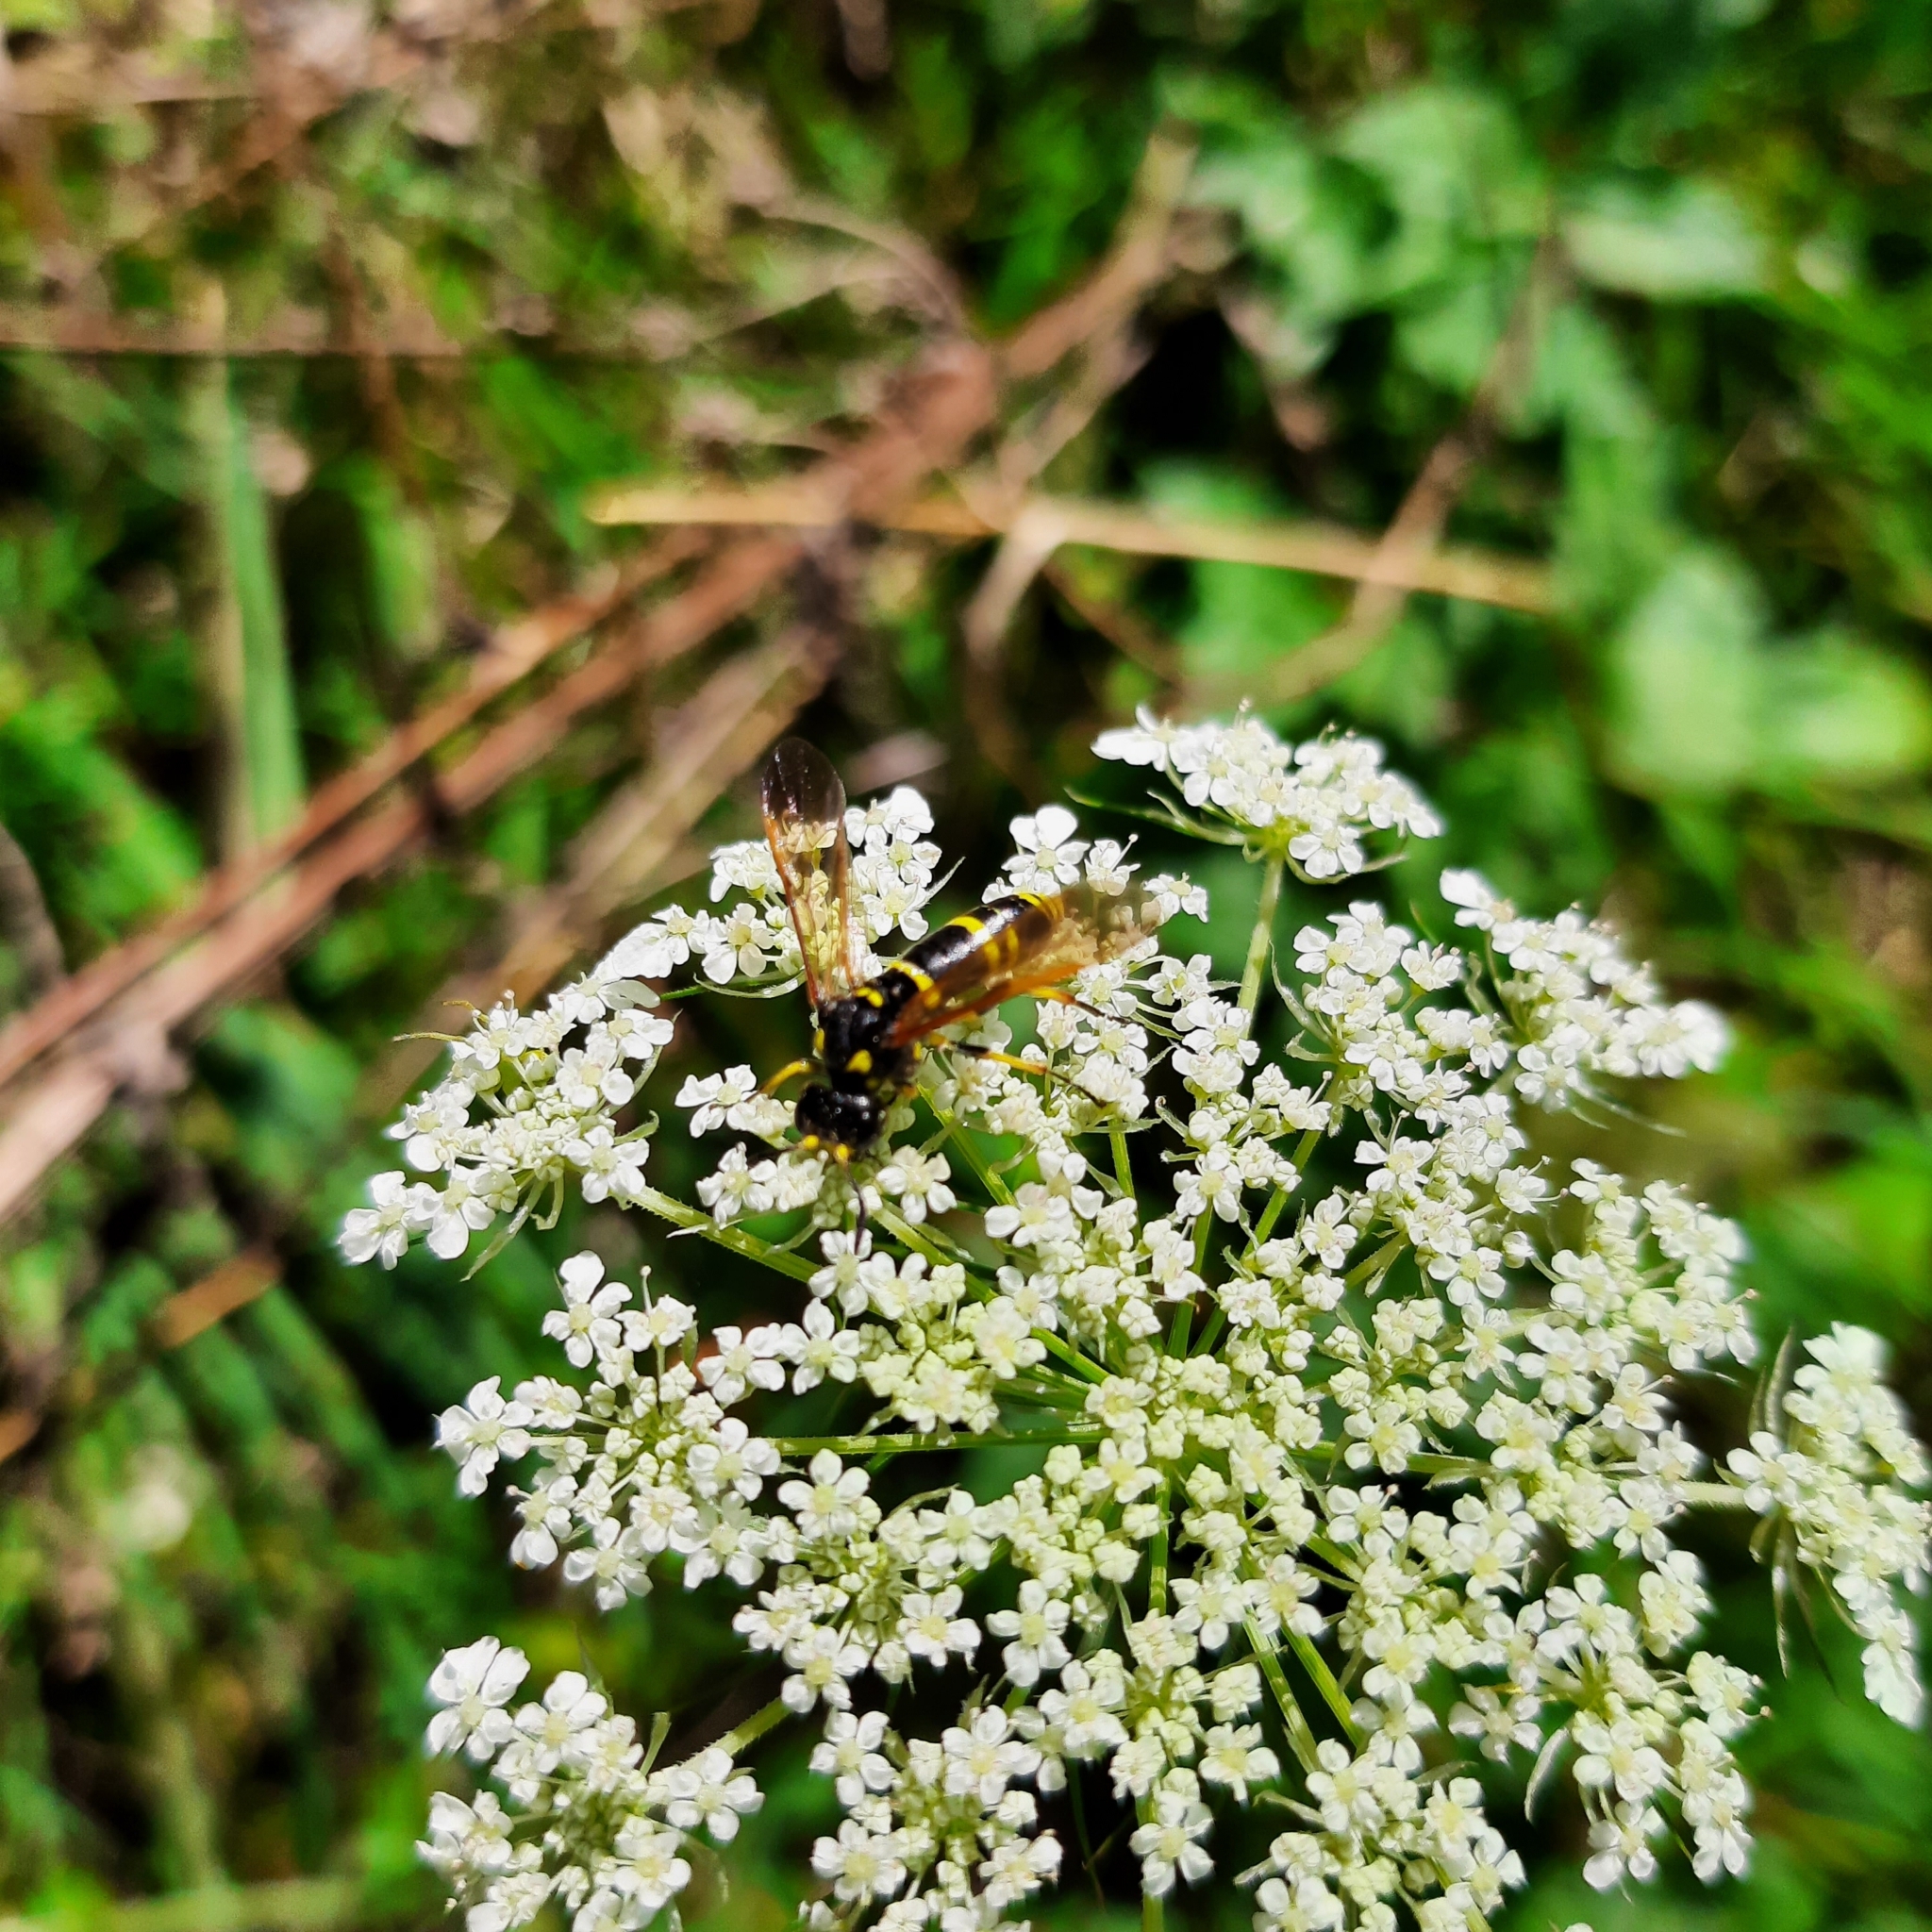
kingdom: Animalia
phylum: Arthropoda
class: Insecta
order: Hymenoptera
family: Tenthredinidae
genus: Tenthredo
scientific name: Tenthredo
